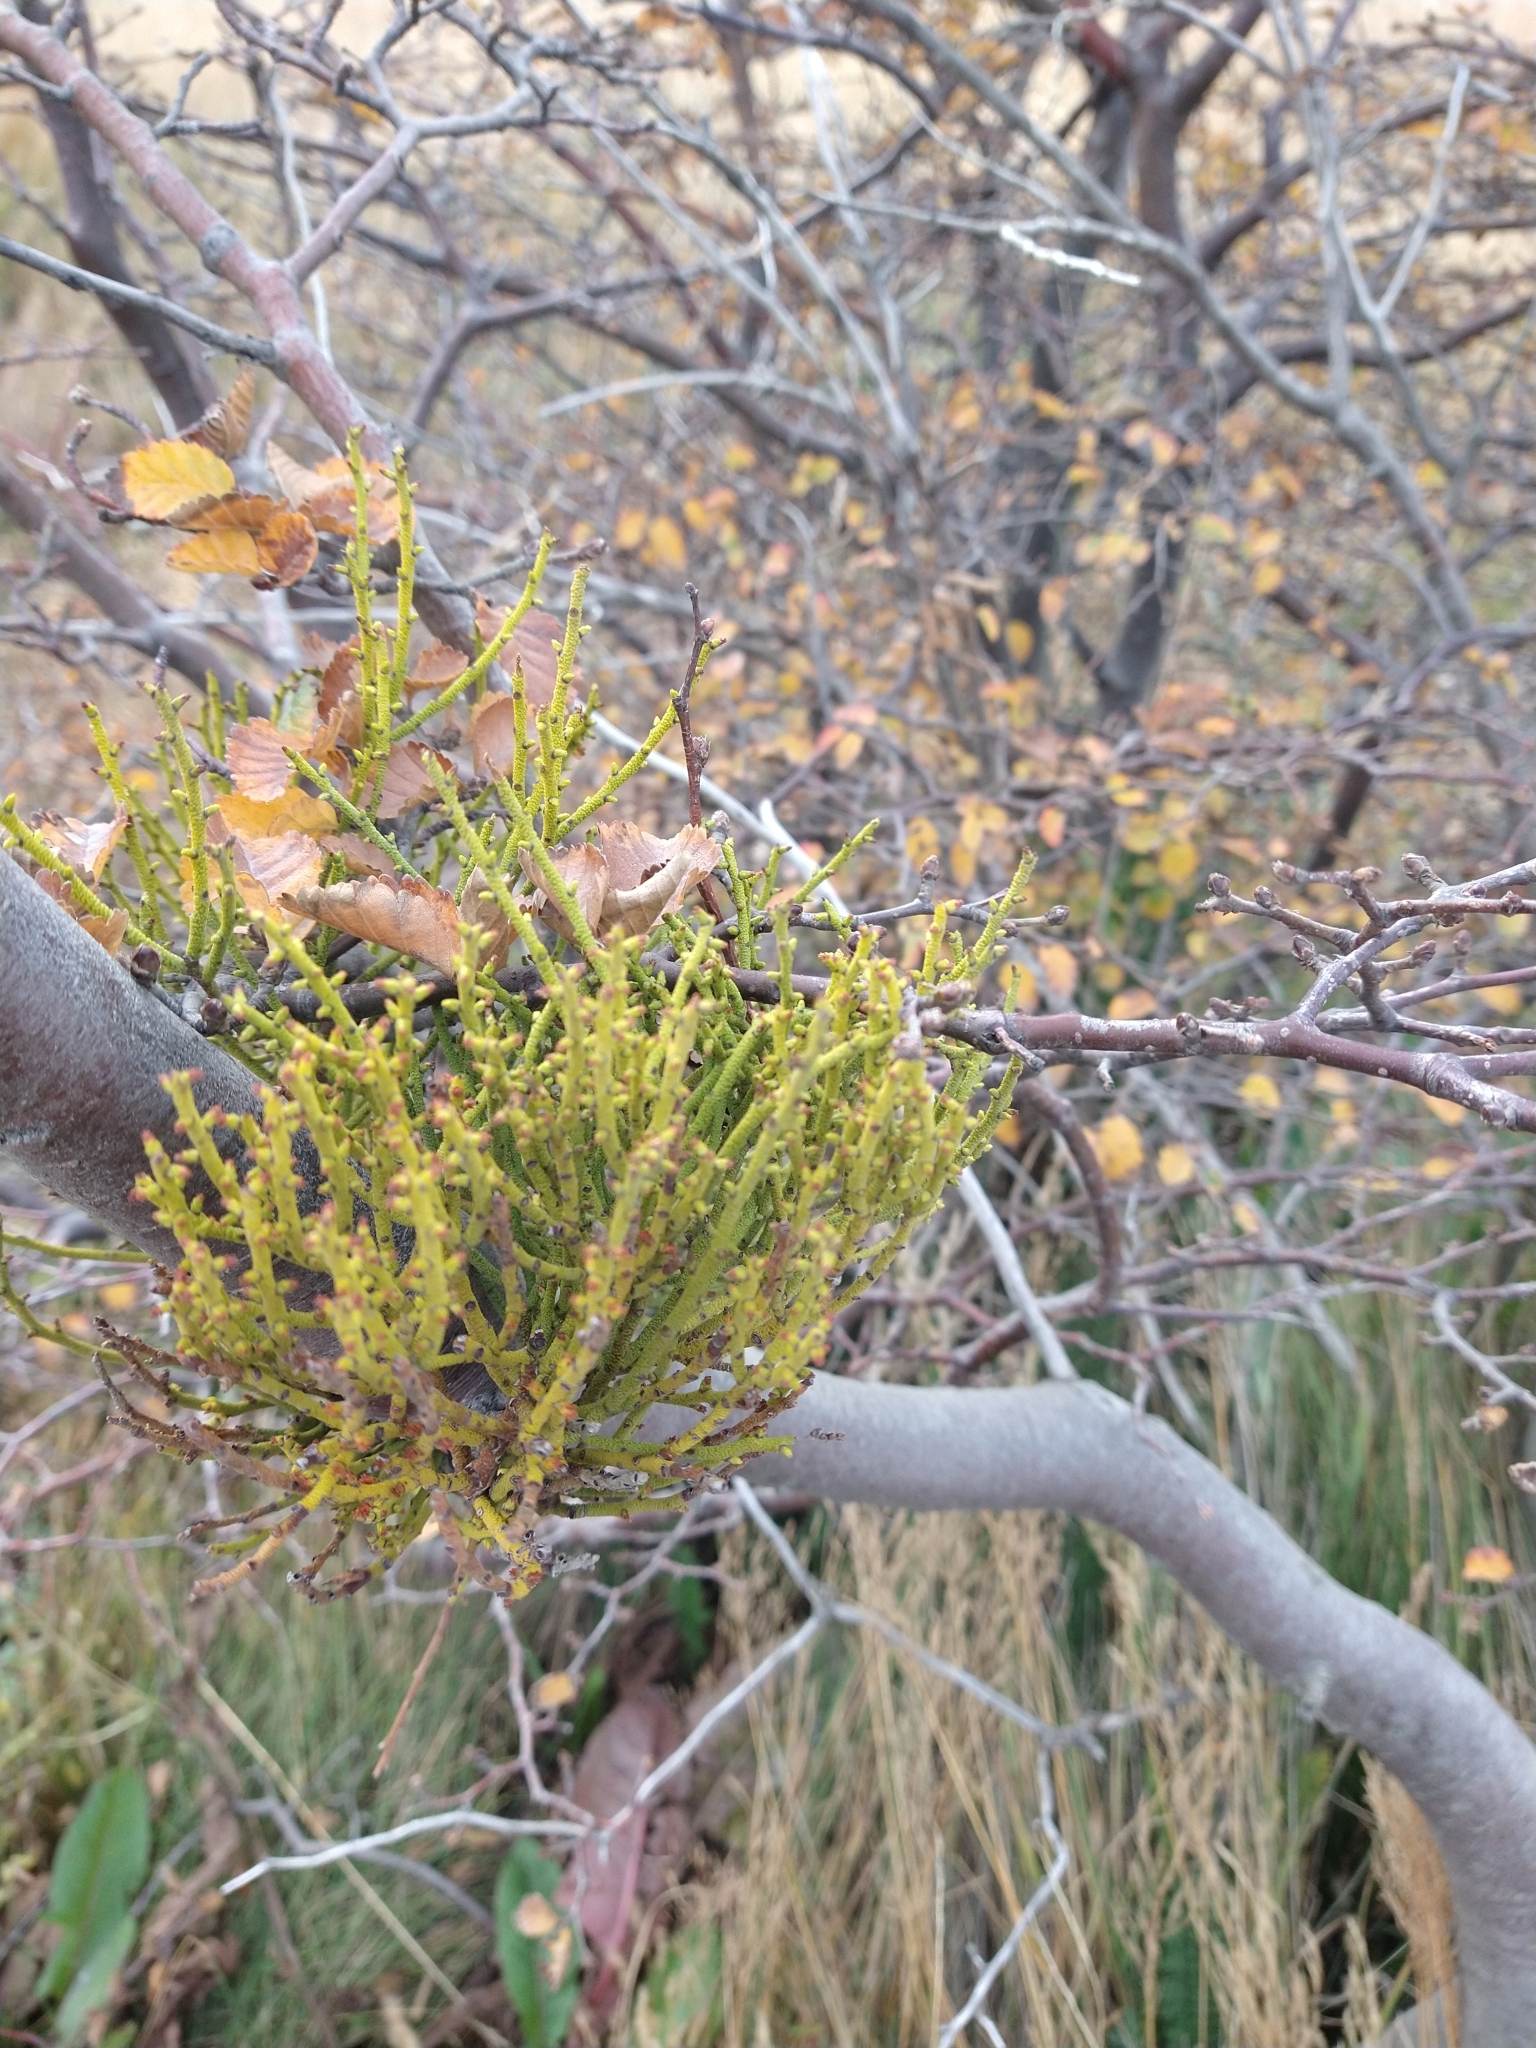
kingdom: Plantae
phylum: Tracheophyta
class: Magnoliopsida
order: Santalales
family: Misodendraceae
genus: Misodendrum
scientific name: Misodendrum punctulatum
